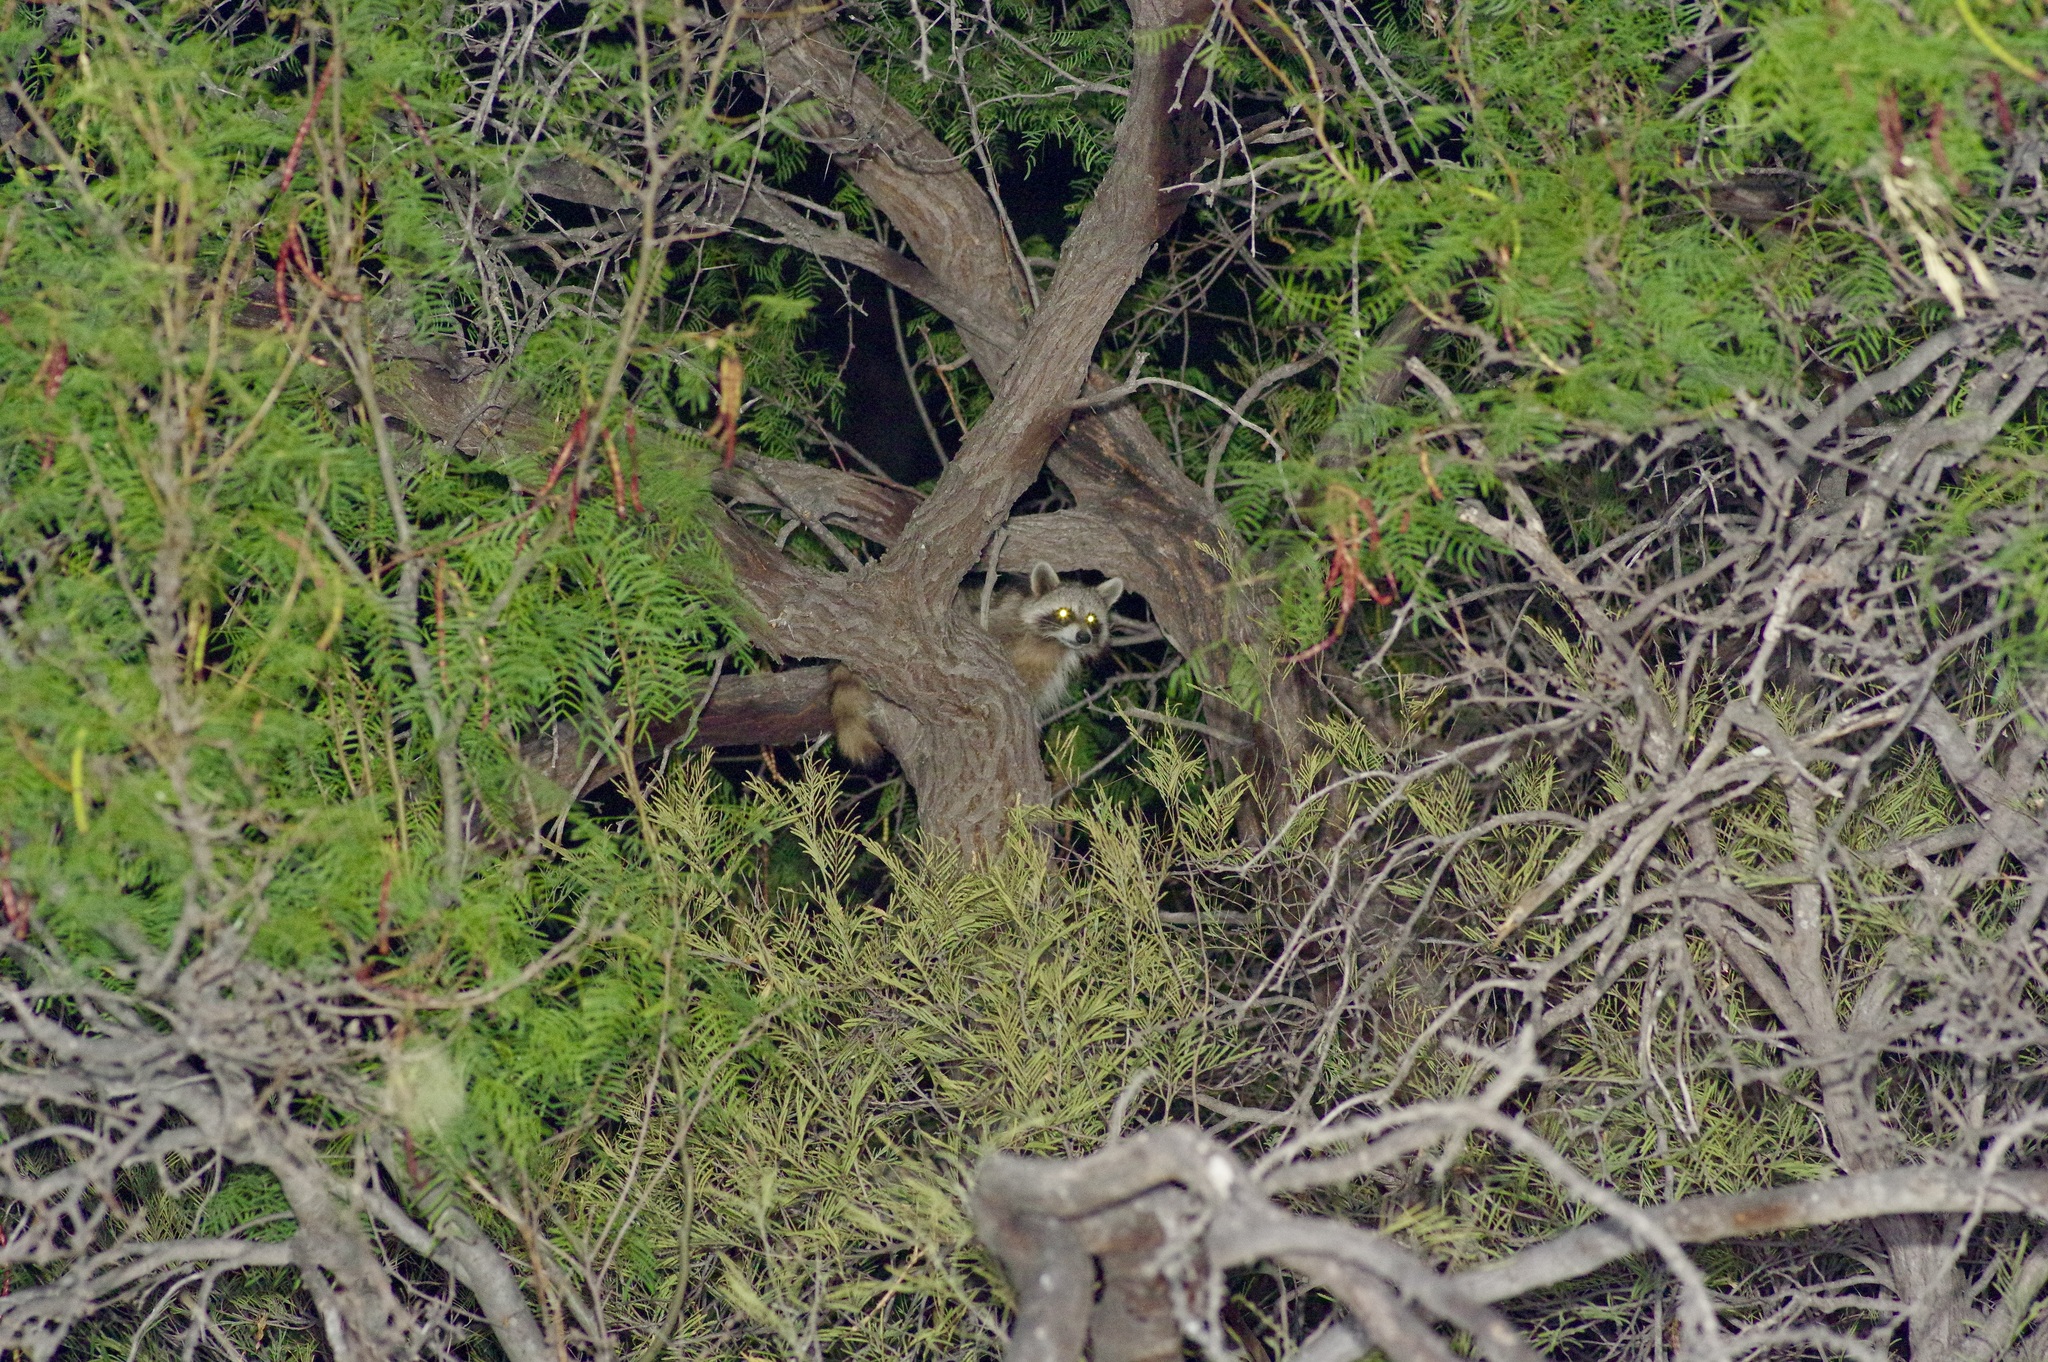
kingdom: Animalia
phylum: Chordata
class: Mammalia
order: Carnivora
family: Procyonidae
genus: Procyon
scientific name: Procyon lotor
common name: Raccoon
